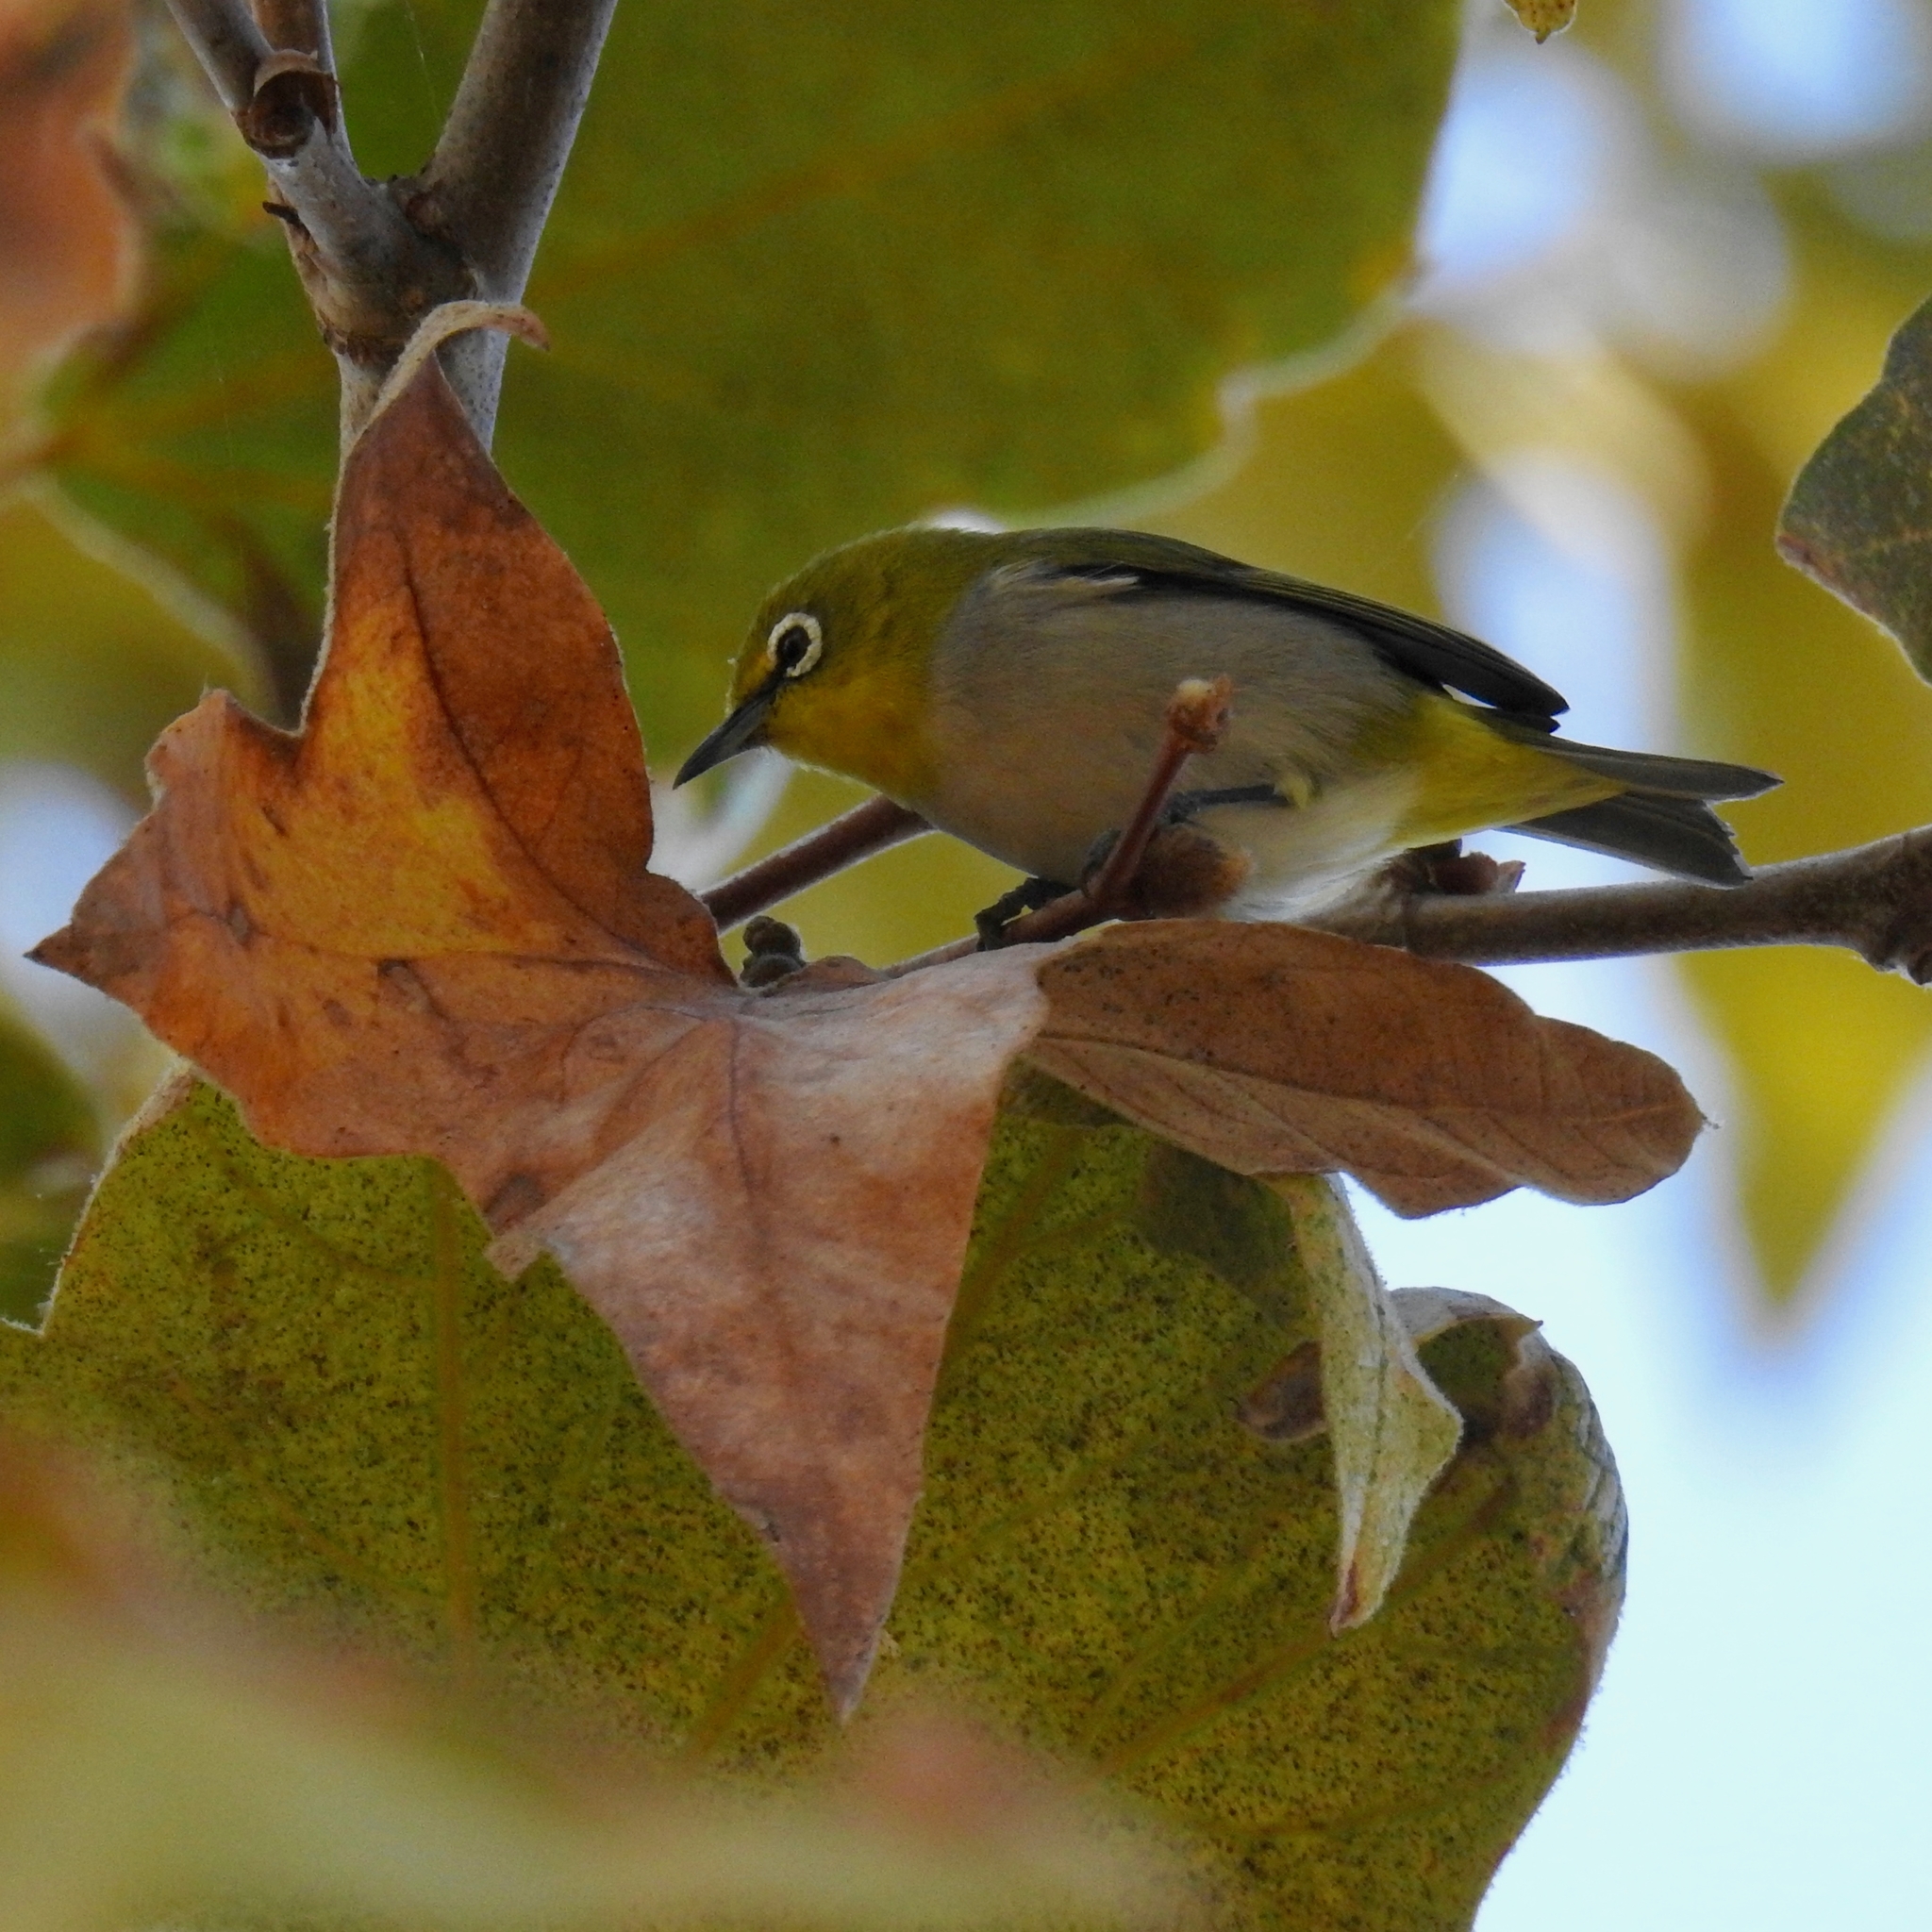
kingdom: Animalia
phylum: Chordata
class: Aves
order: Passeriformes
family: Zosteropidae
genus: Zosterops
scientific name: Zosterops simplex
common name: Swinhoe's white-eye
